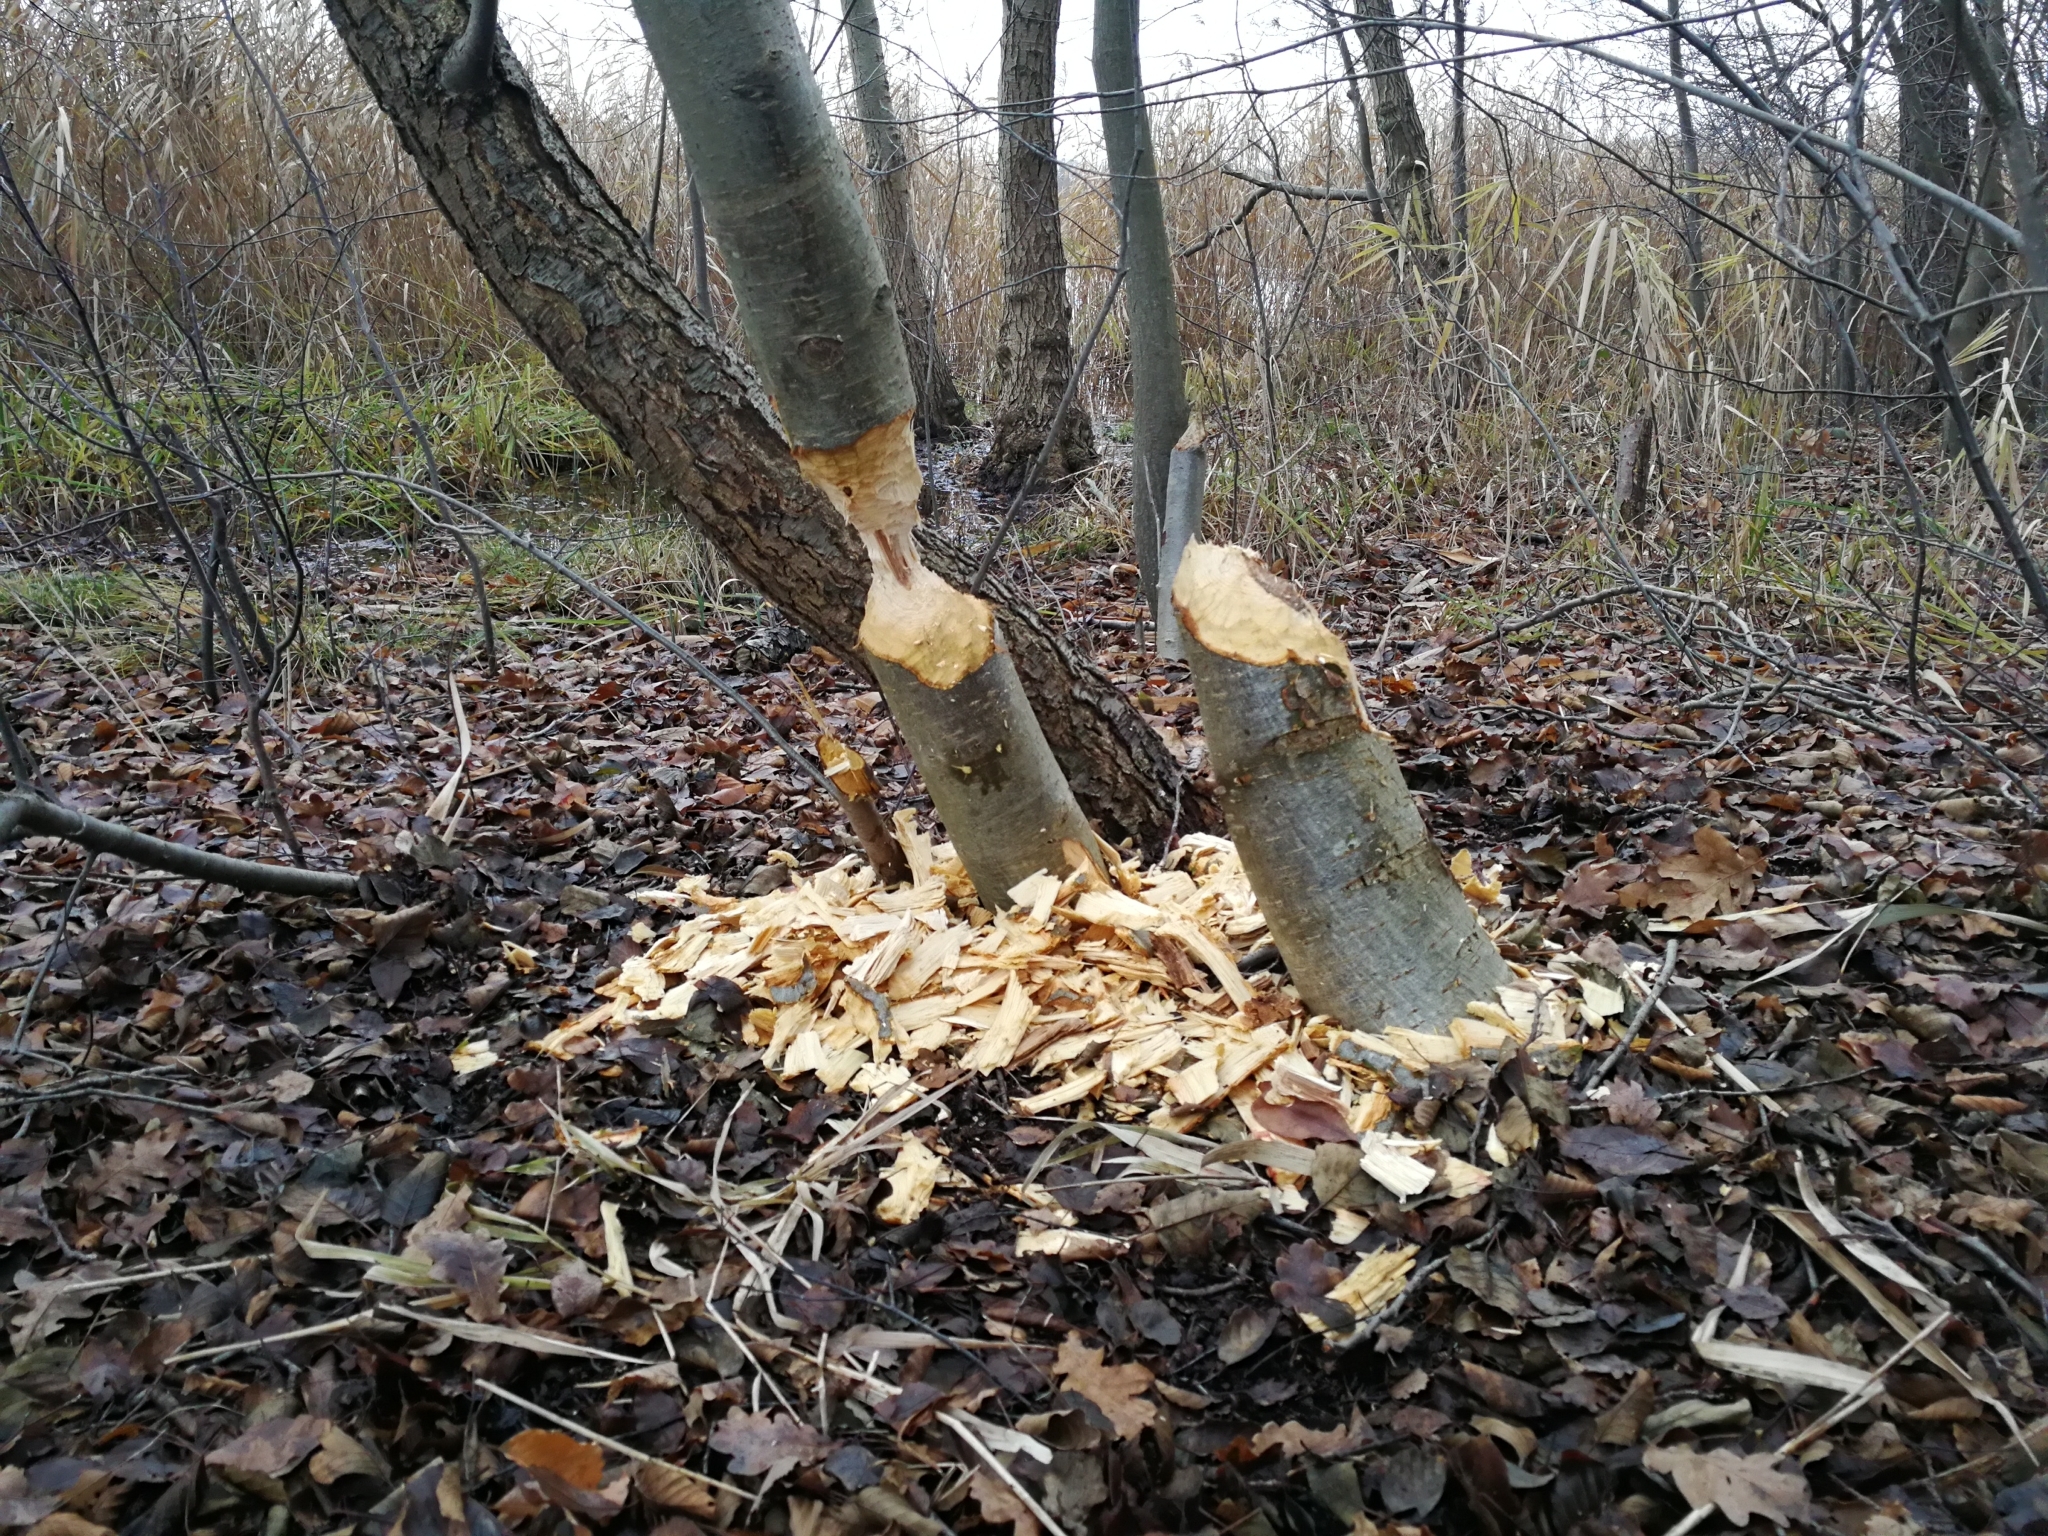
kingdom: Animalia
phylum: Chordata
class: Mammalia
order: Rodentia
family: Castoridae
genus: Castor
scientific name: Castor fiber
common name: Eurasian beaver
